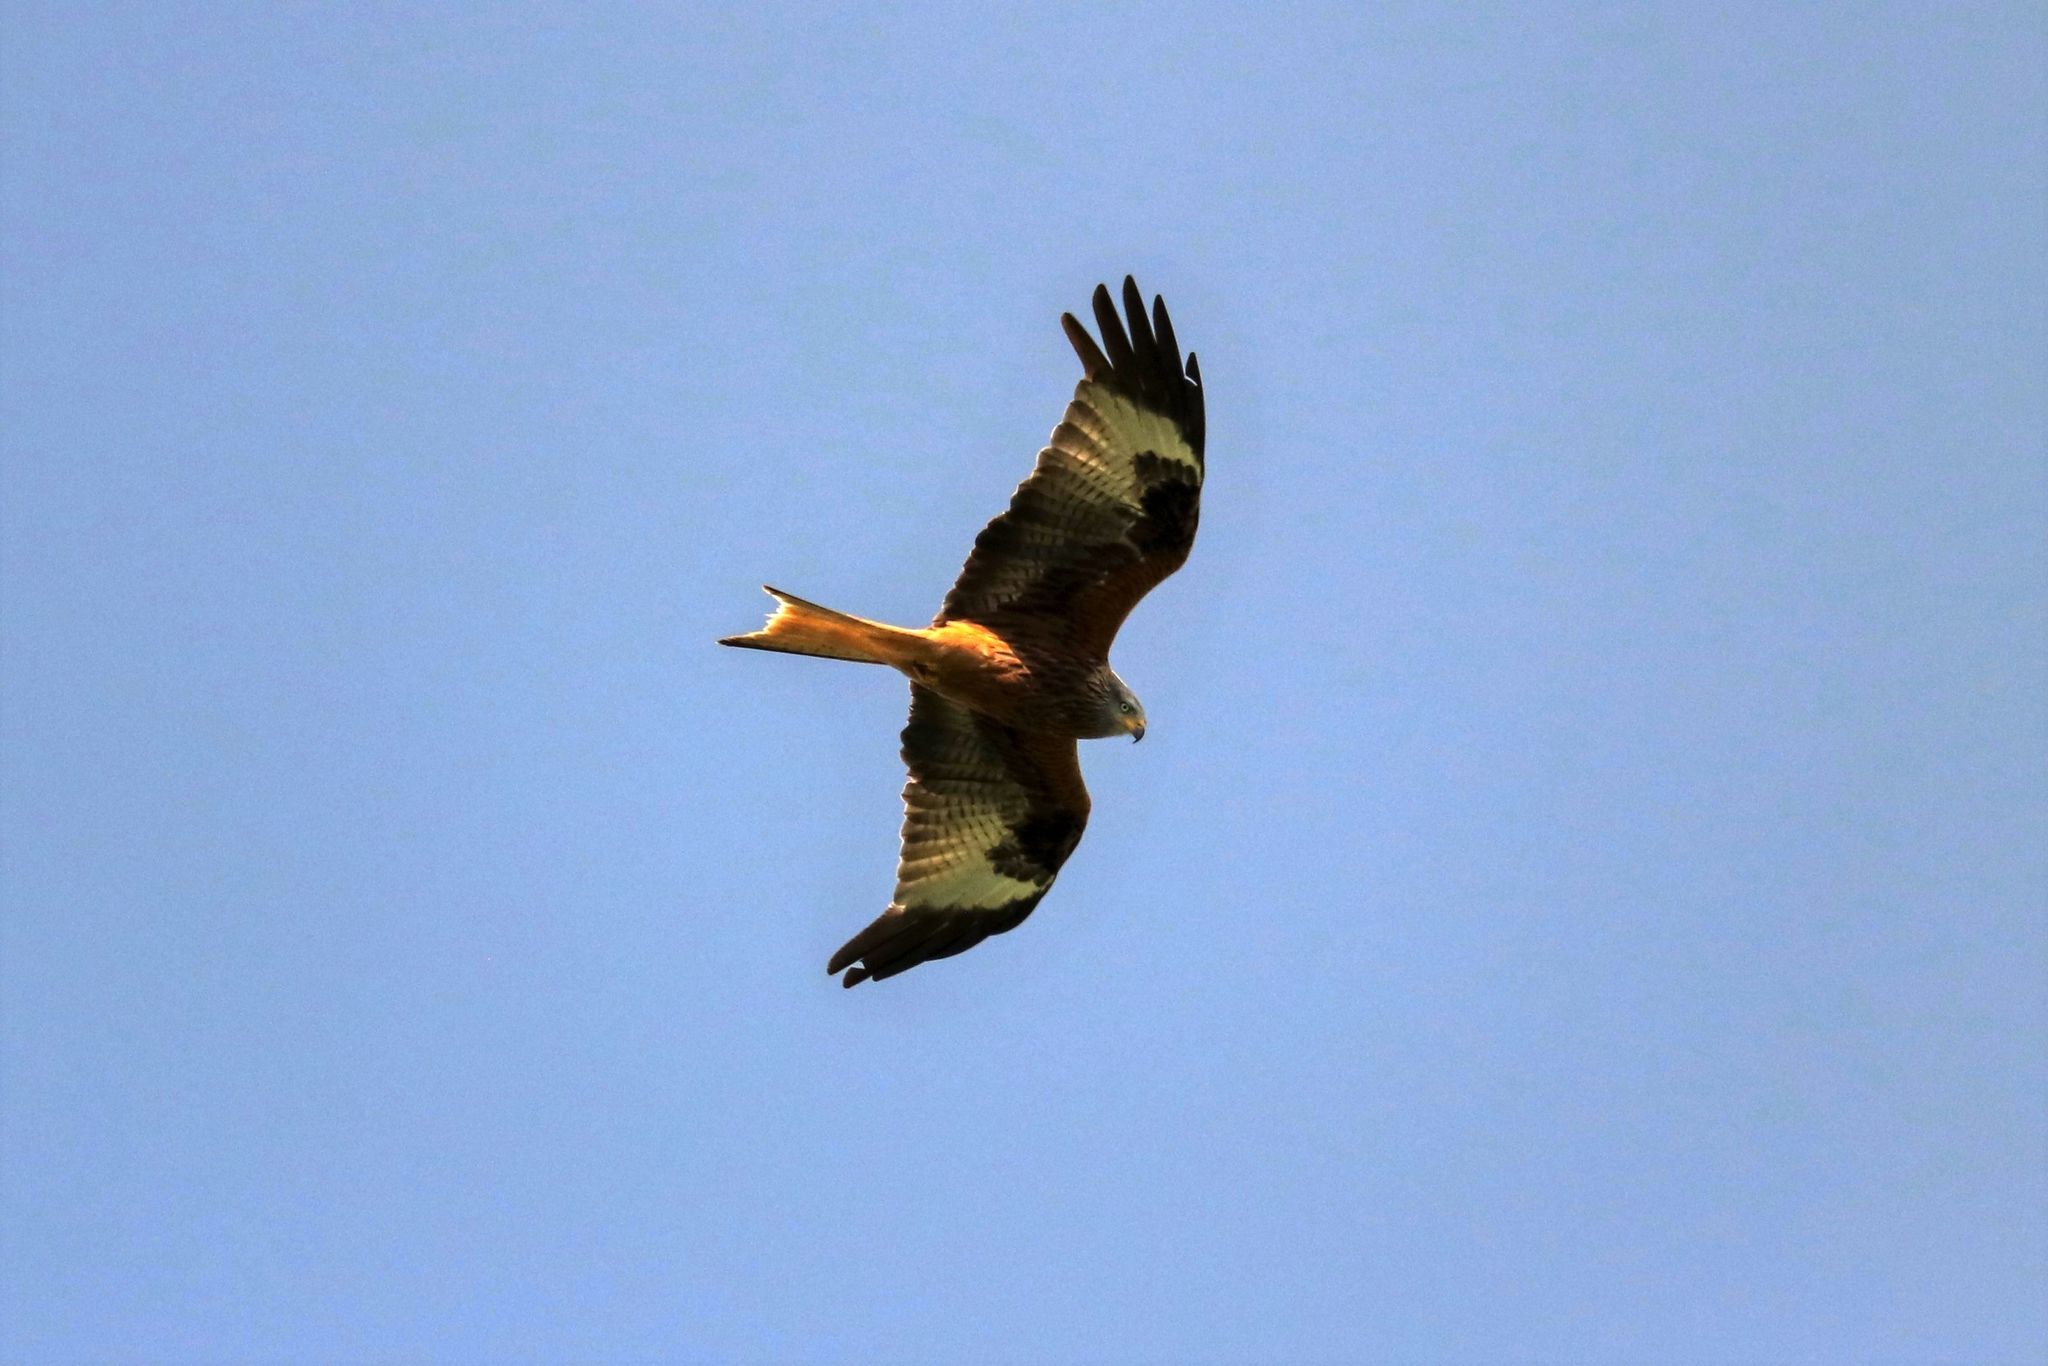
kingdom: Animalia
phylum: Chordata
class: Aves
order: Accipitriformes
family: Accipitridae
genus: Milvus
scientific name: Milvus milvus
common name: Red kite
